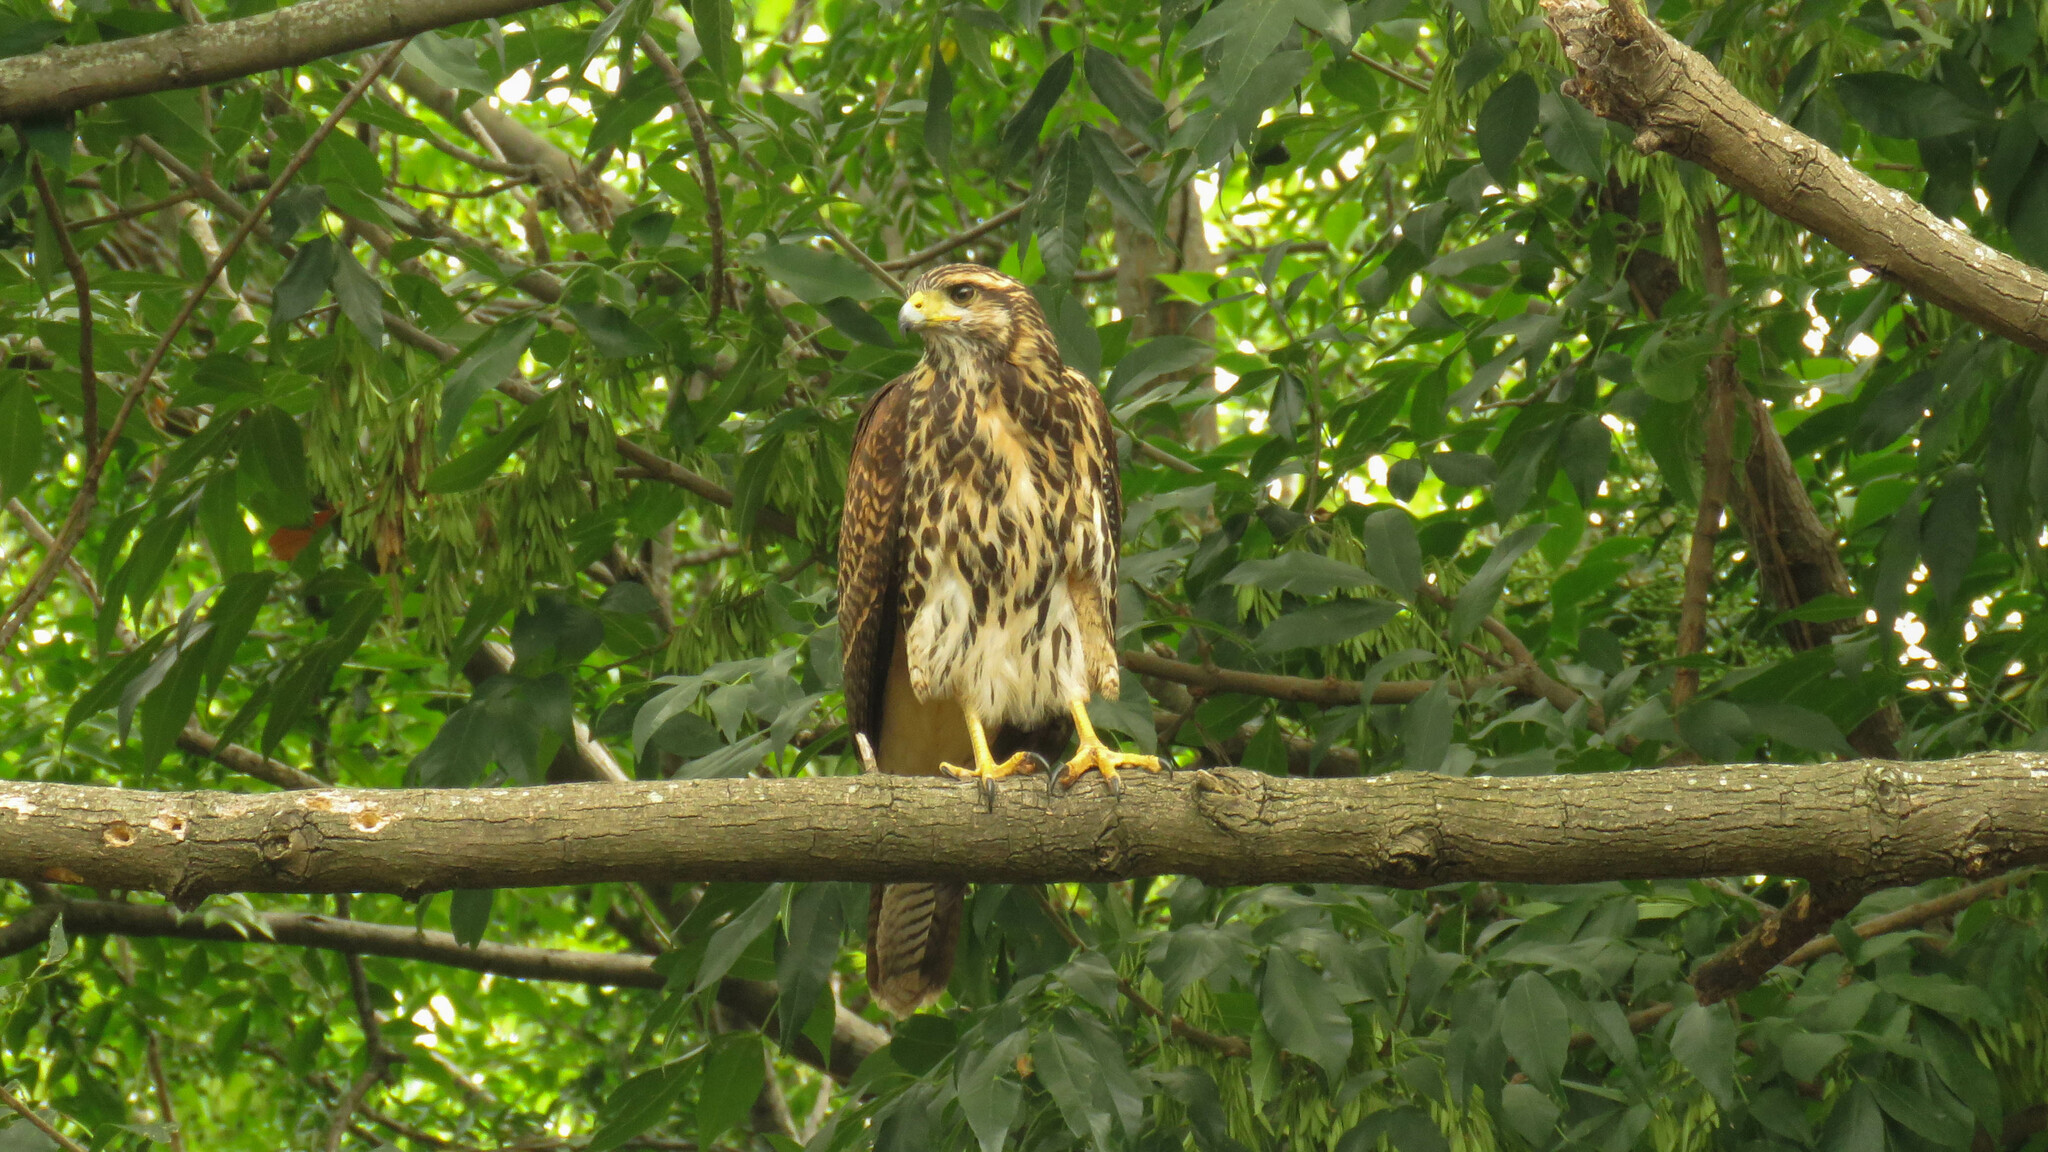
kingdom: Animalia
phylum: Chordata
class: Aves
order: Accipitriformes
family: Accipitridae
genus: Parabuteo
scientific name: Parabuteo unicinctus
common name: Harris's hawk
